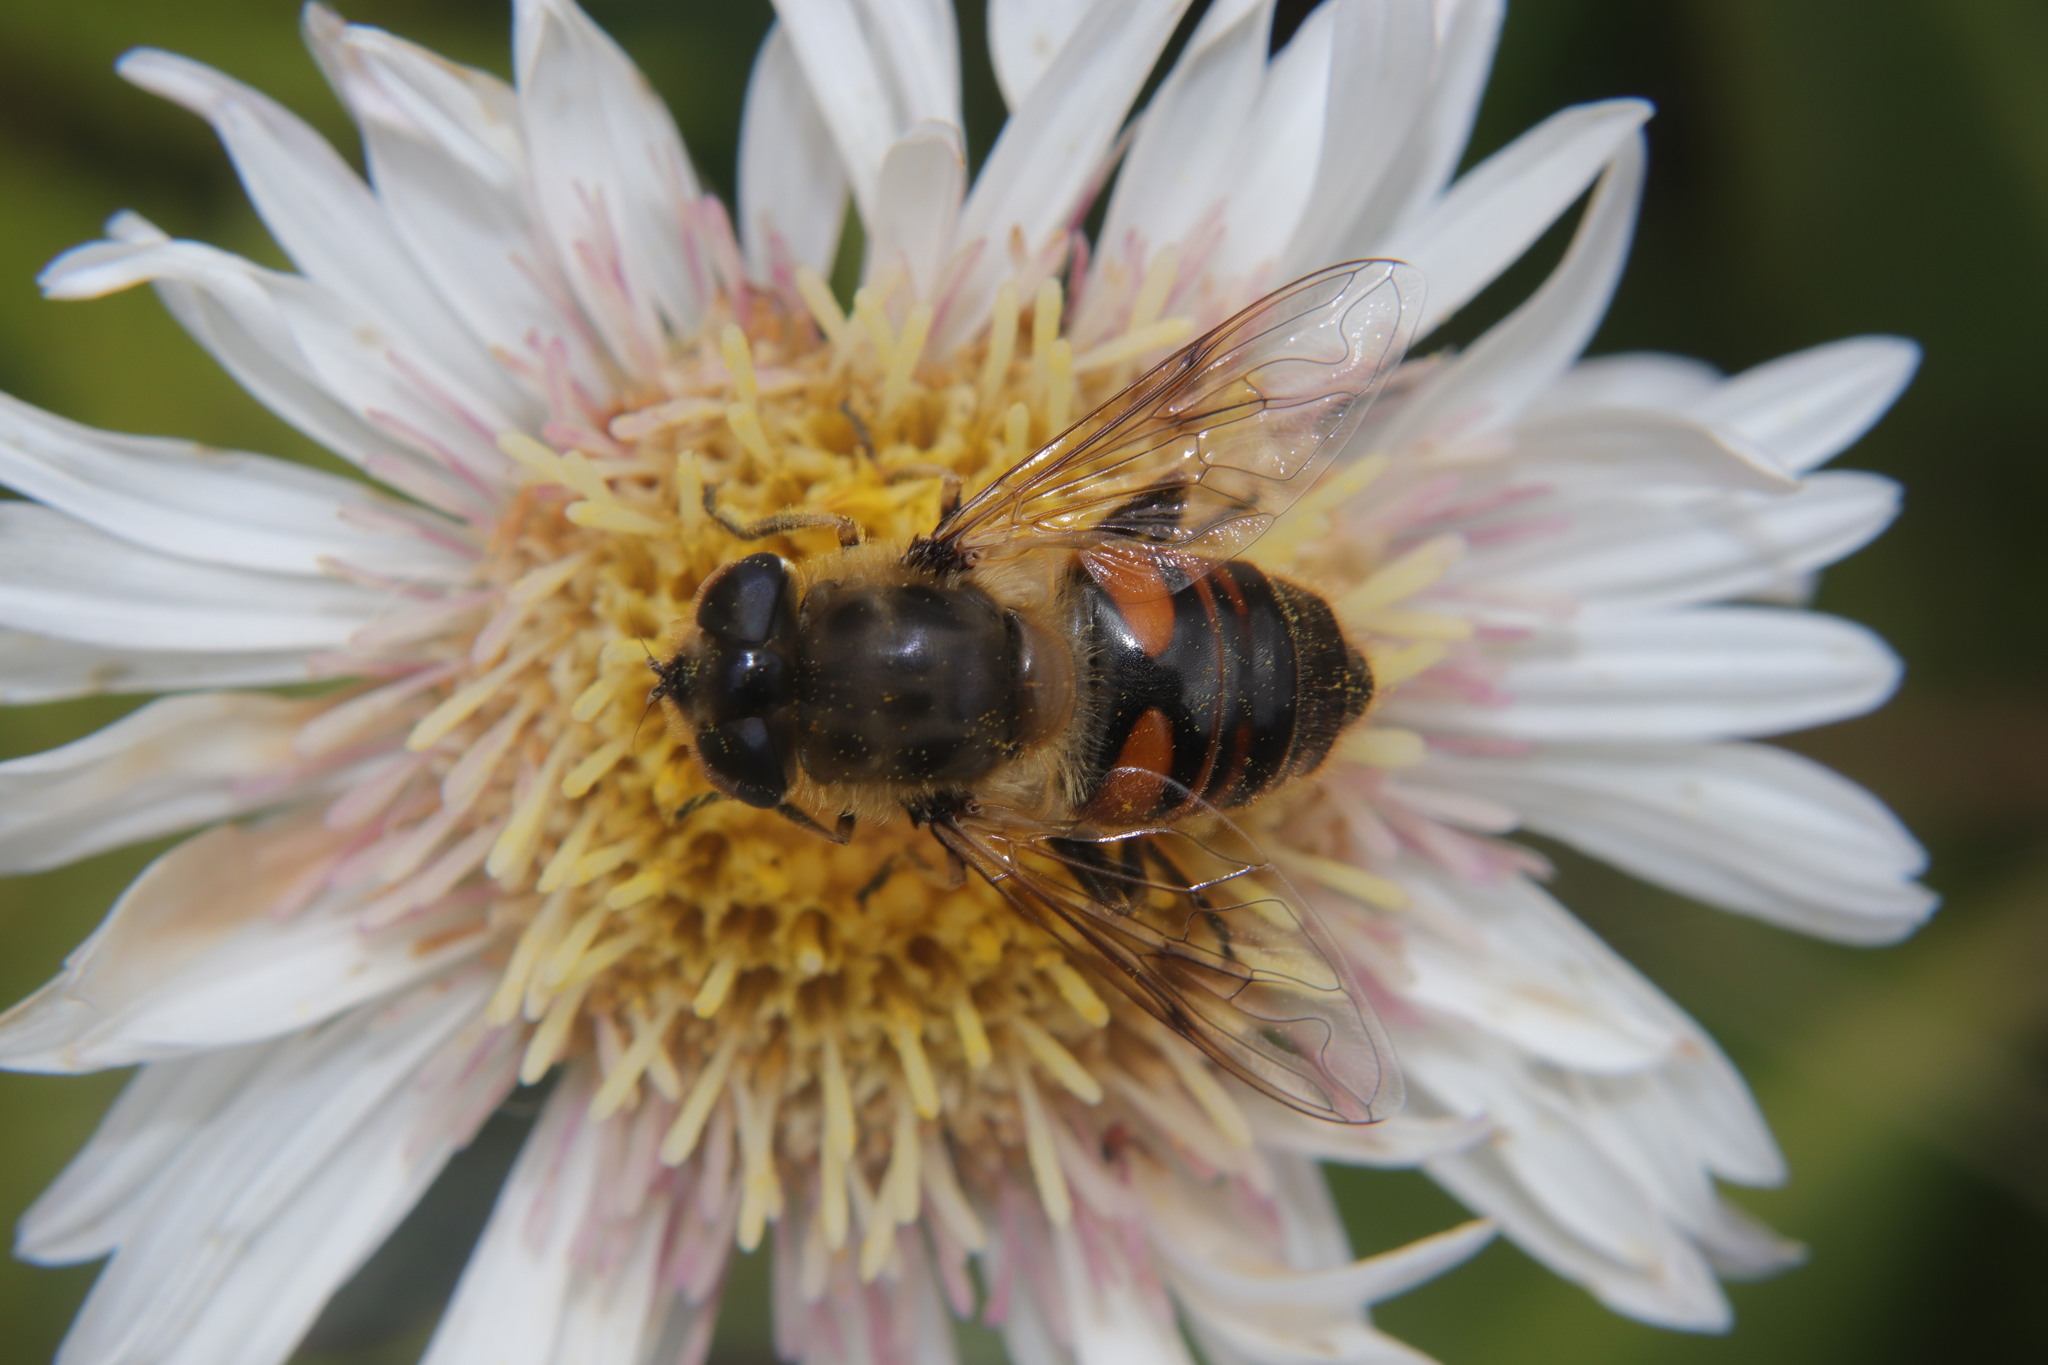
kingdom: Animalia
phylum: Arthropoda
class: Insecta
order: Diptera
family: Syrphidae
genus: Eristalis
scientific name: Eristalis tenax
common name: Drone fly
